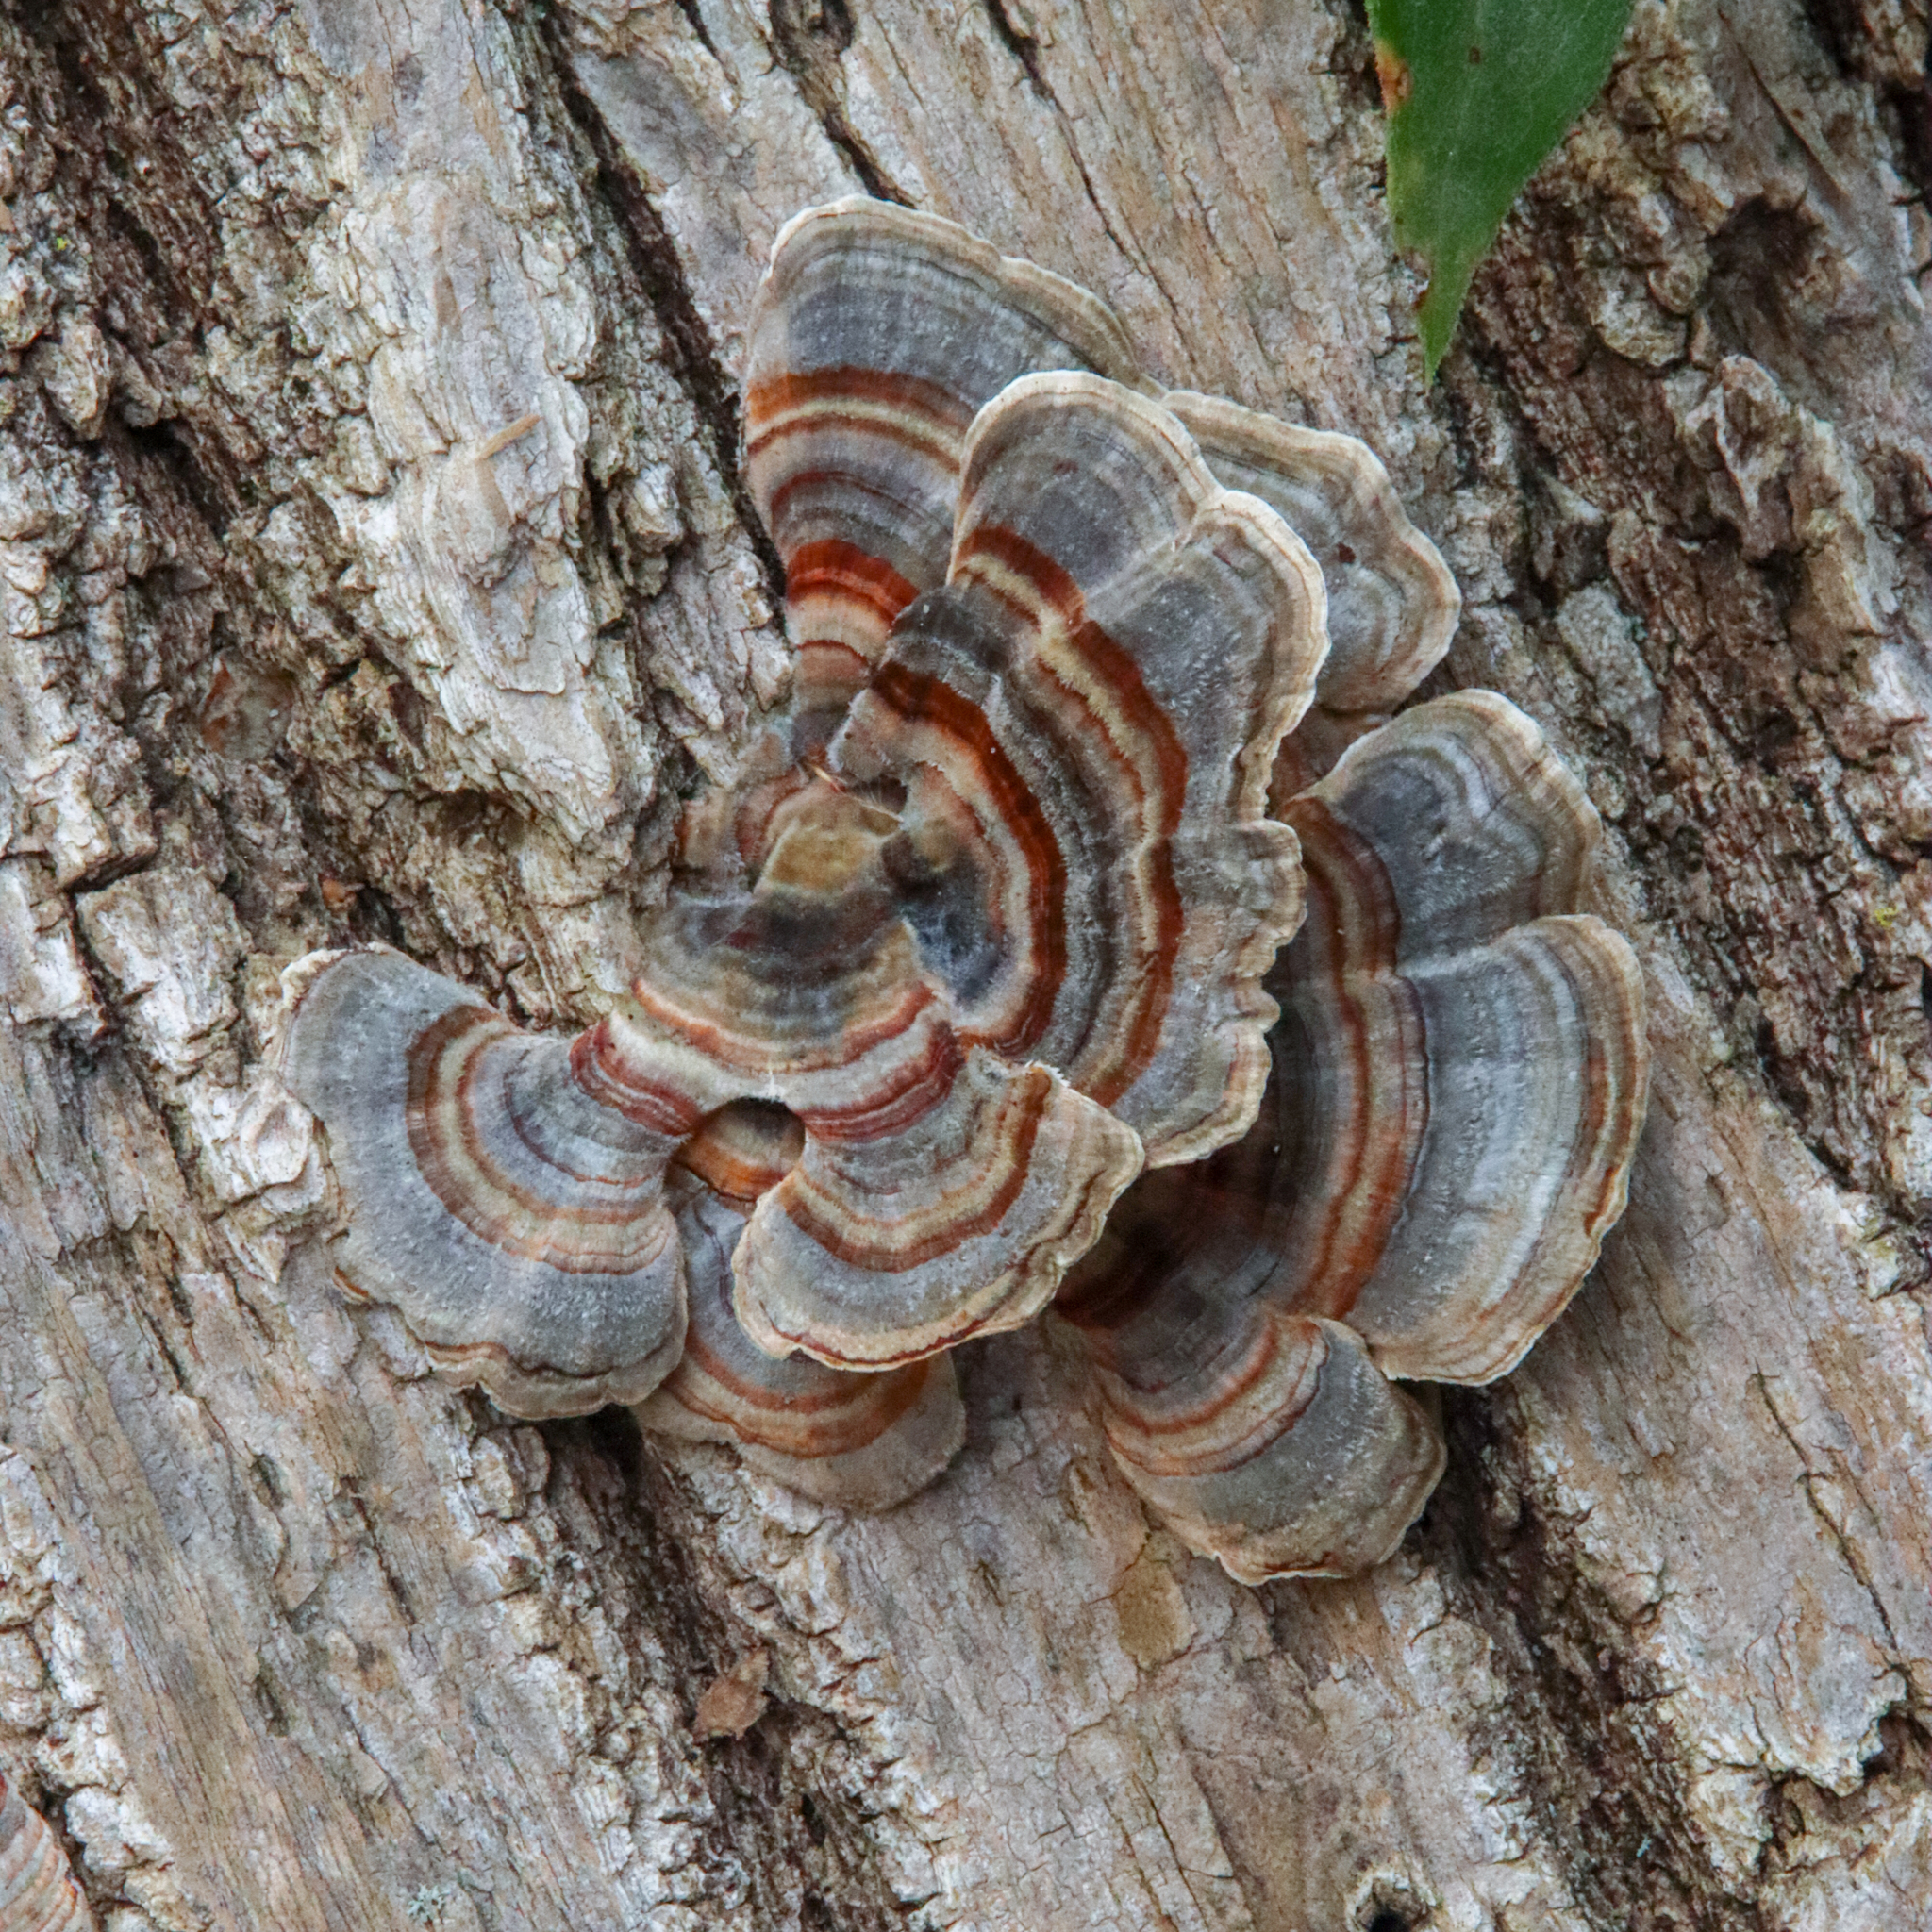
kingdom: Fungi
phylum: Basidiomycota
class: Agaricomycetes
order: Polyporales
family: Polyporaceae
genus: Trametes
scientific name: Trametes versicolor
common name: Turkeytail
